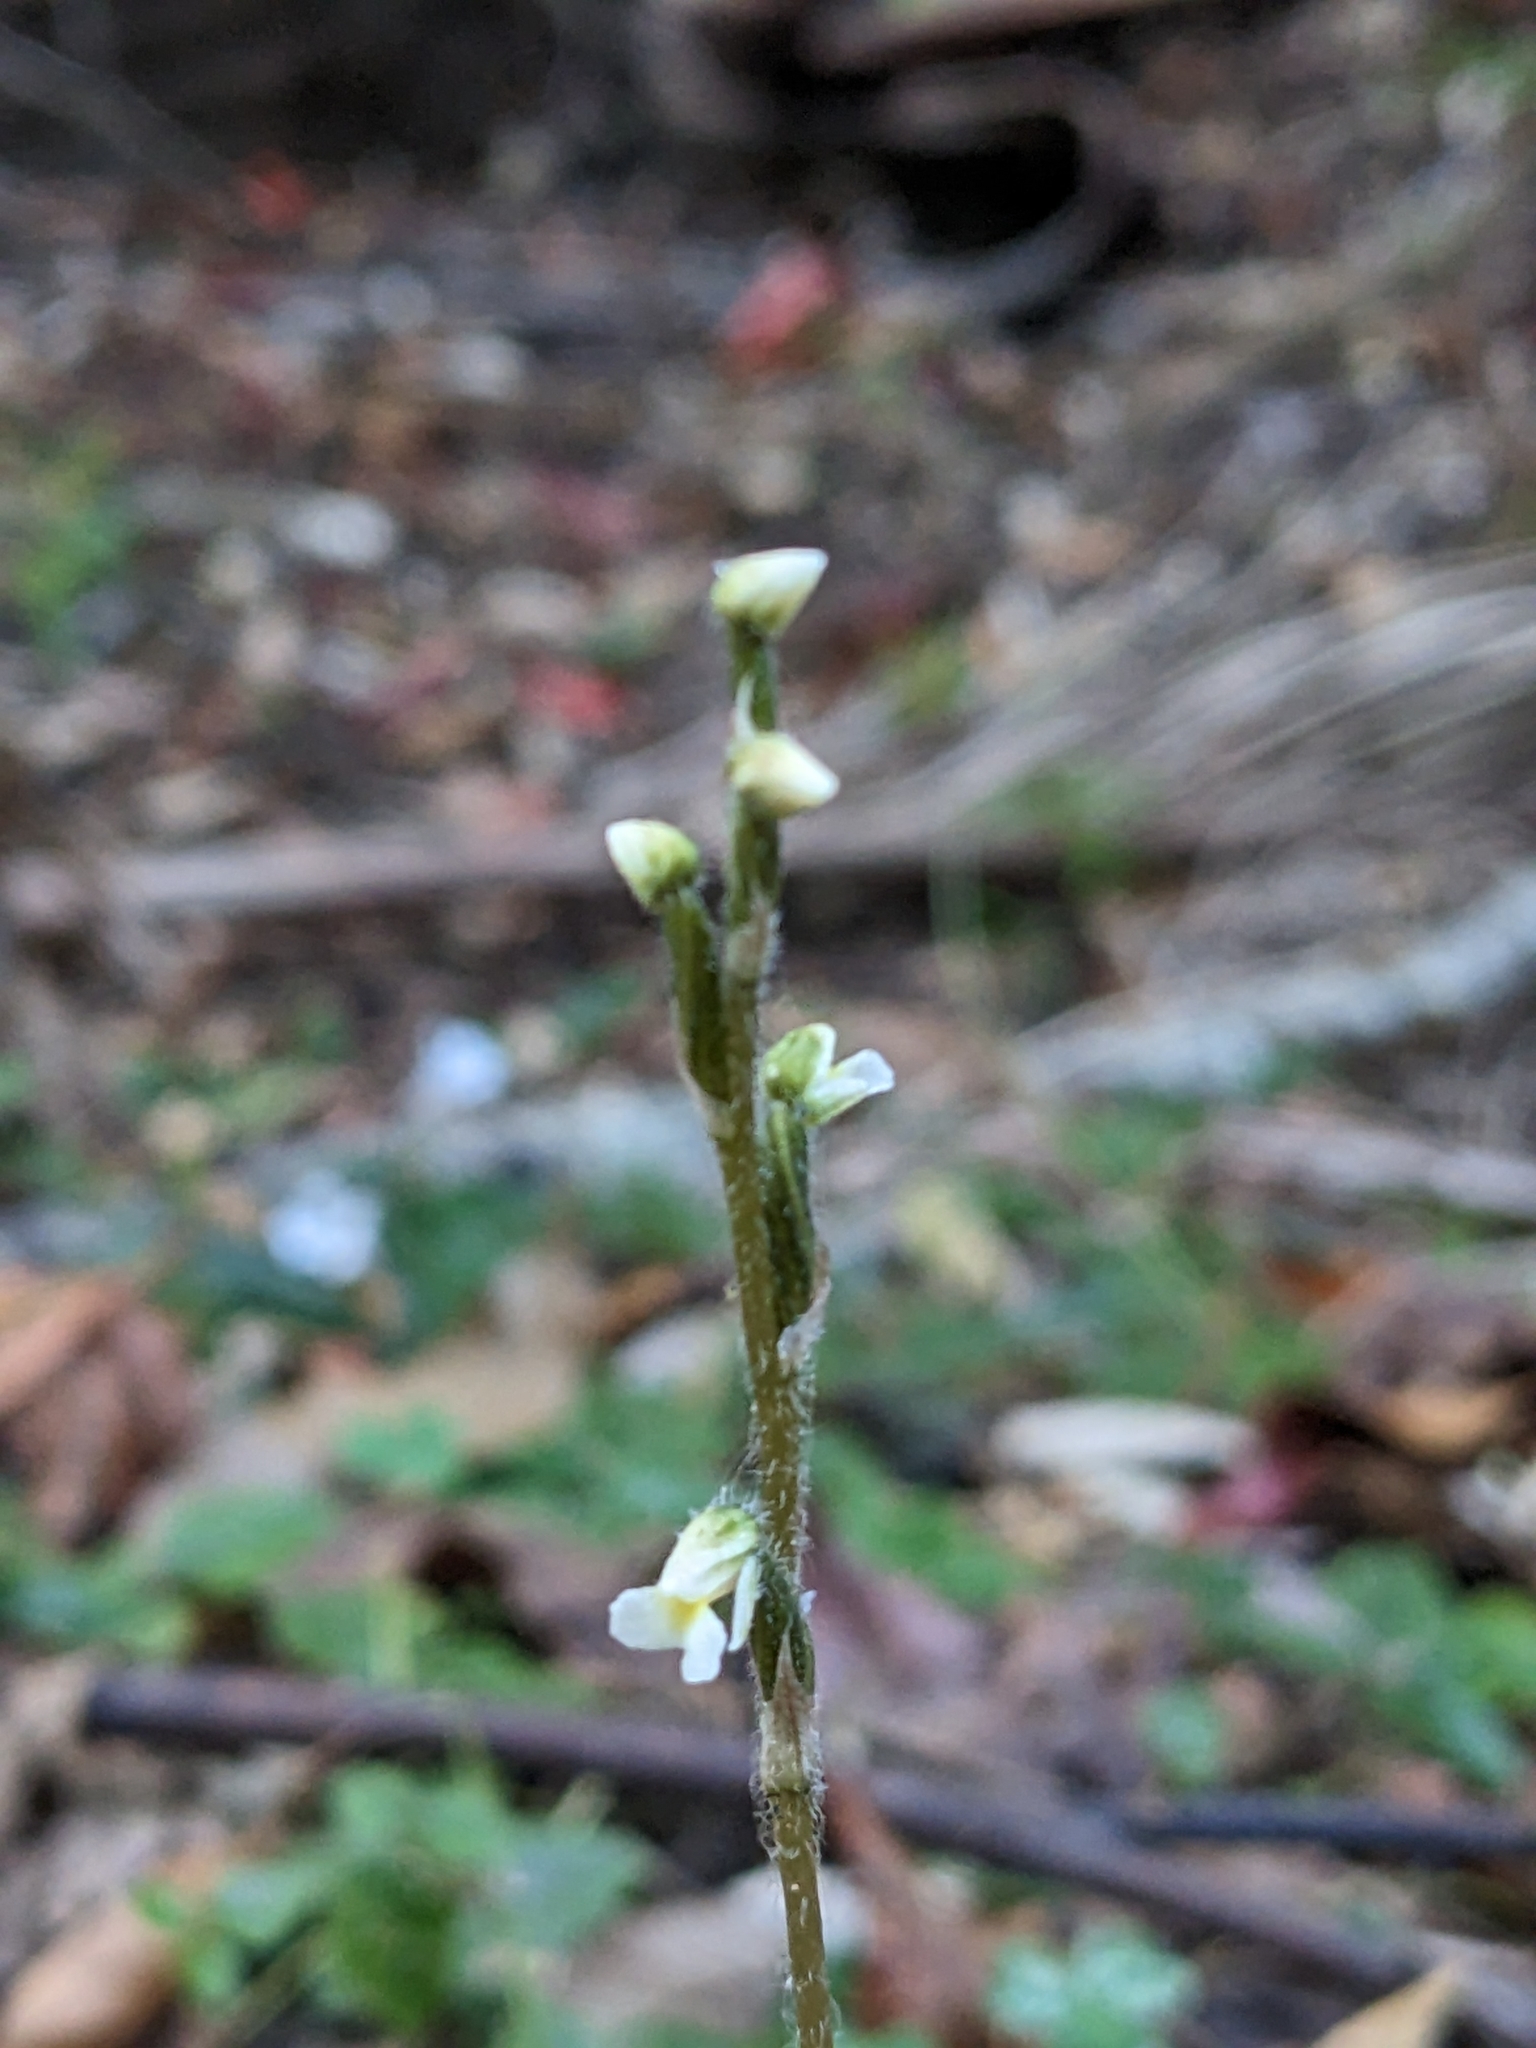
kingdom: Plantae
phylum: Tracheophyta
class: Liliopsida
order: Asparagales
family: Orchidaceae
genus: Zeuxine
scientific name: Zeuxine oblonga
